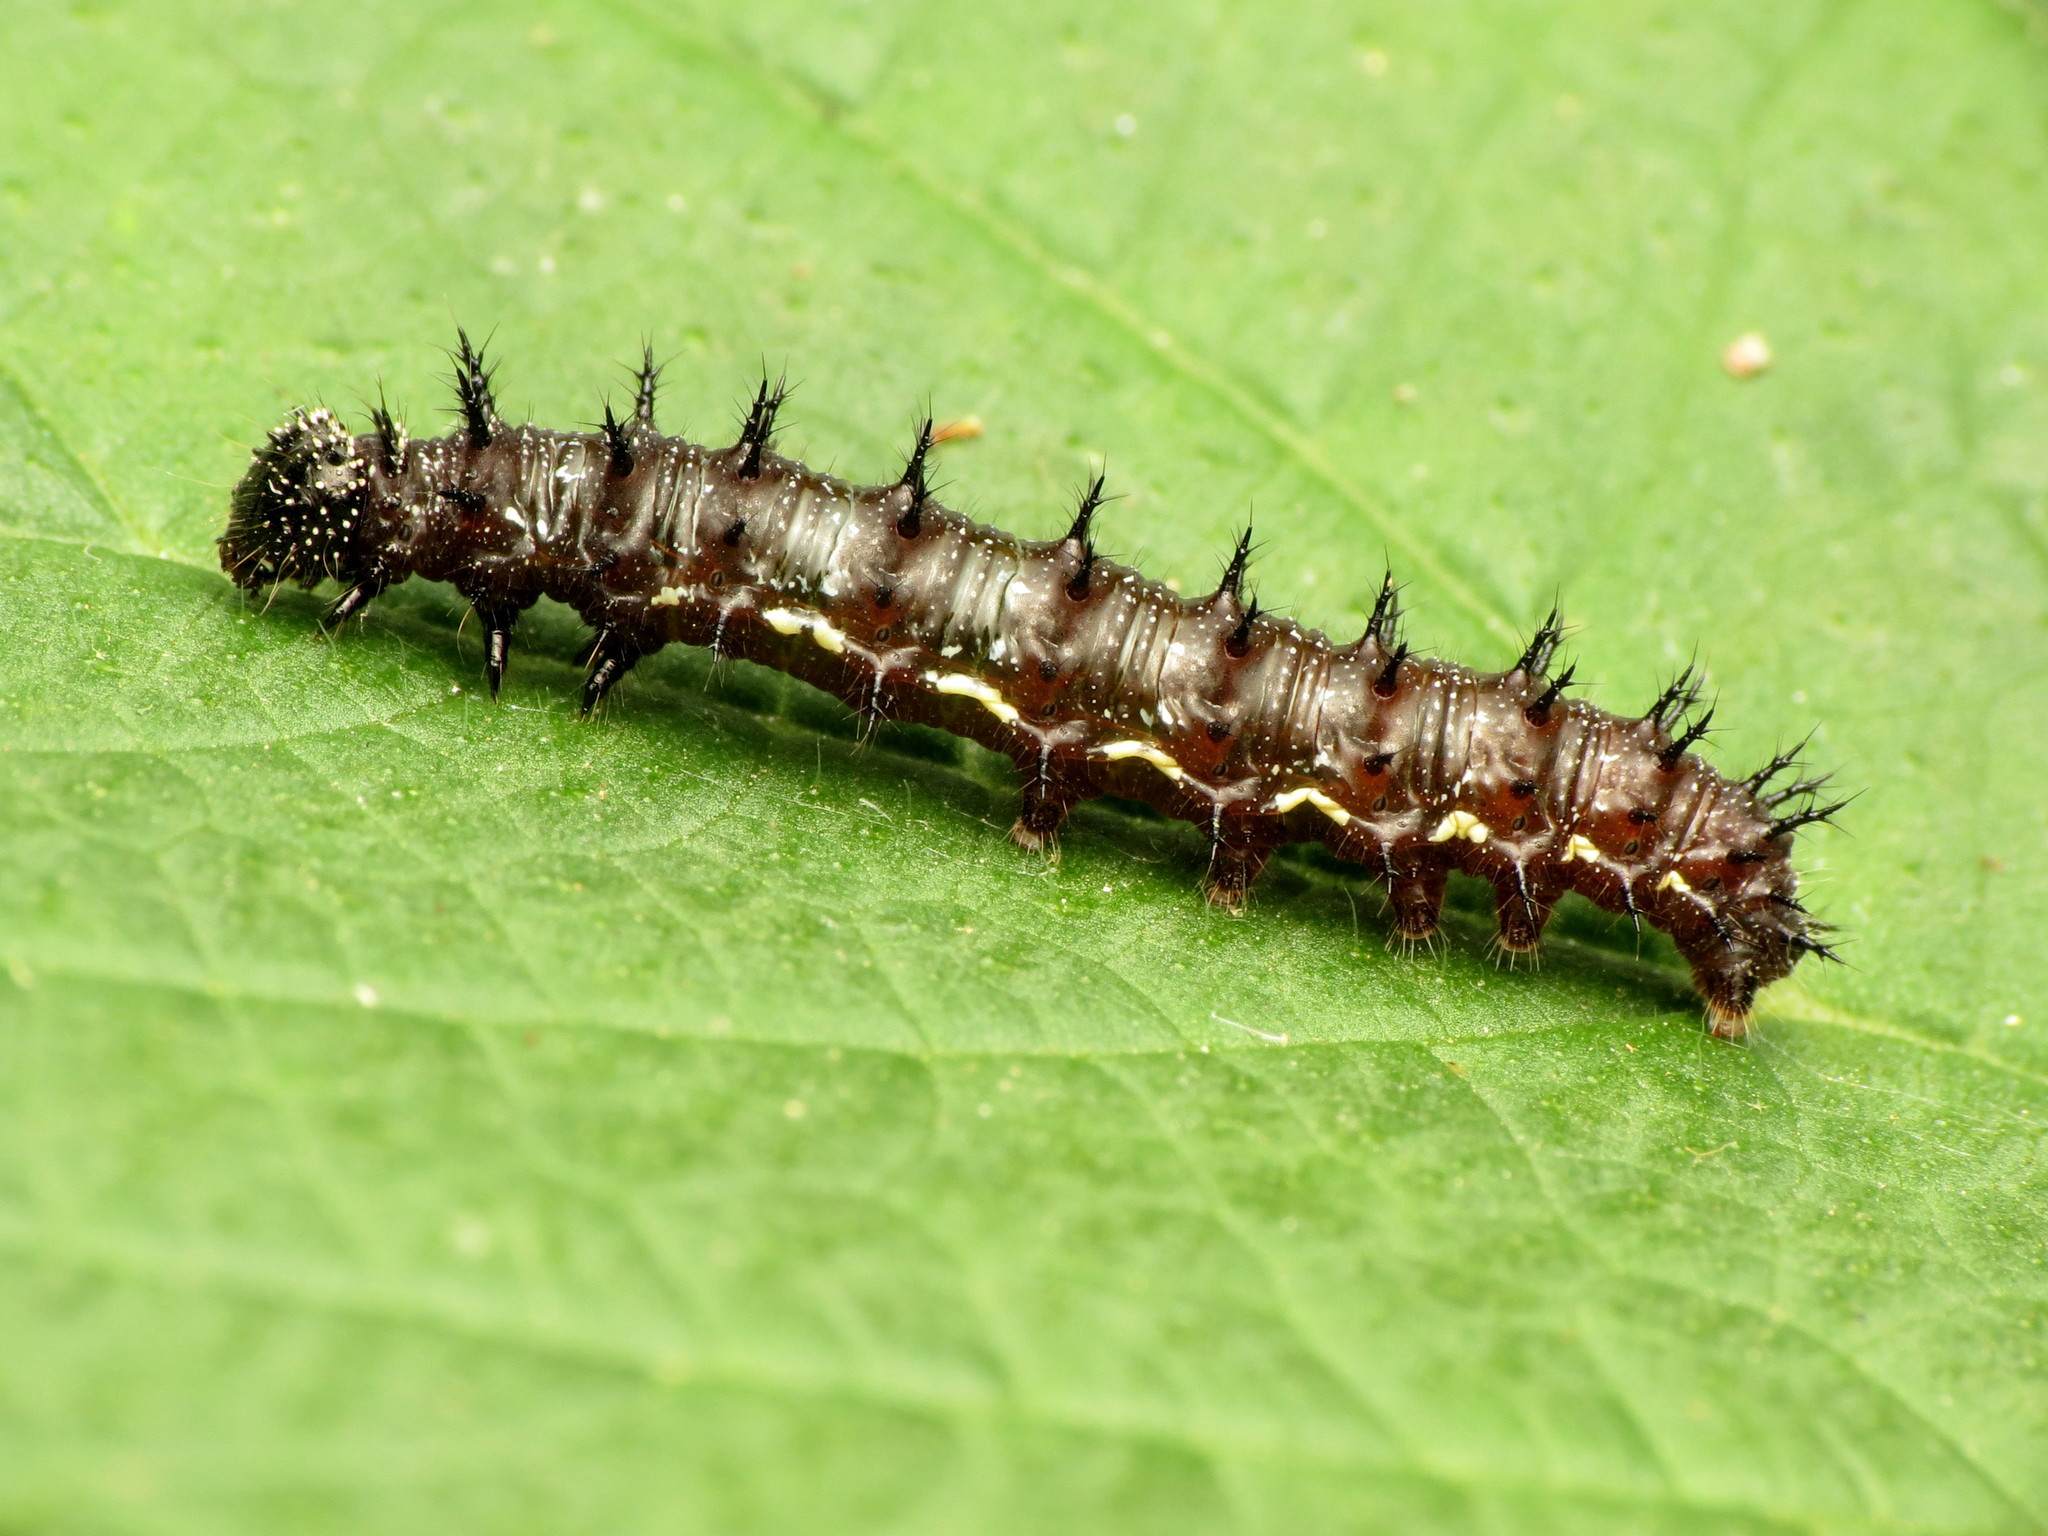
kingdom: Animalia
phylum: Arthropoda
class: Insecta
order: Lepidoptera
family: Nymphalidae
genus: Vanessa
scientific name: Vanessa atalanta
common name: Red admiral
